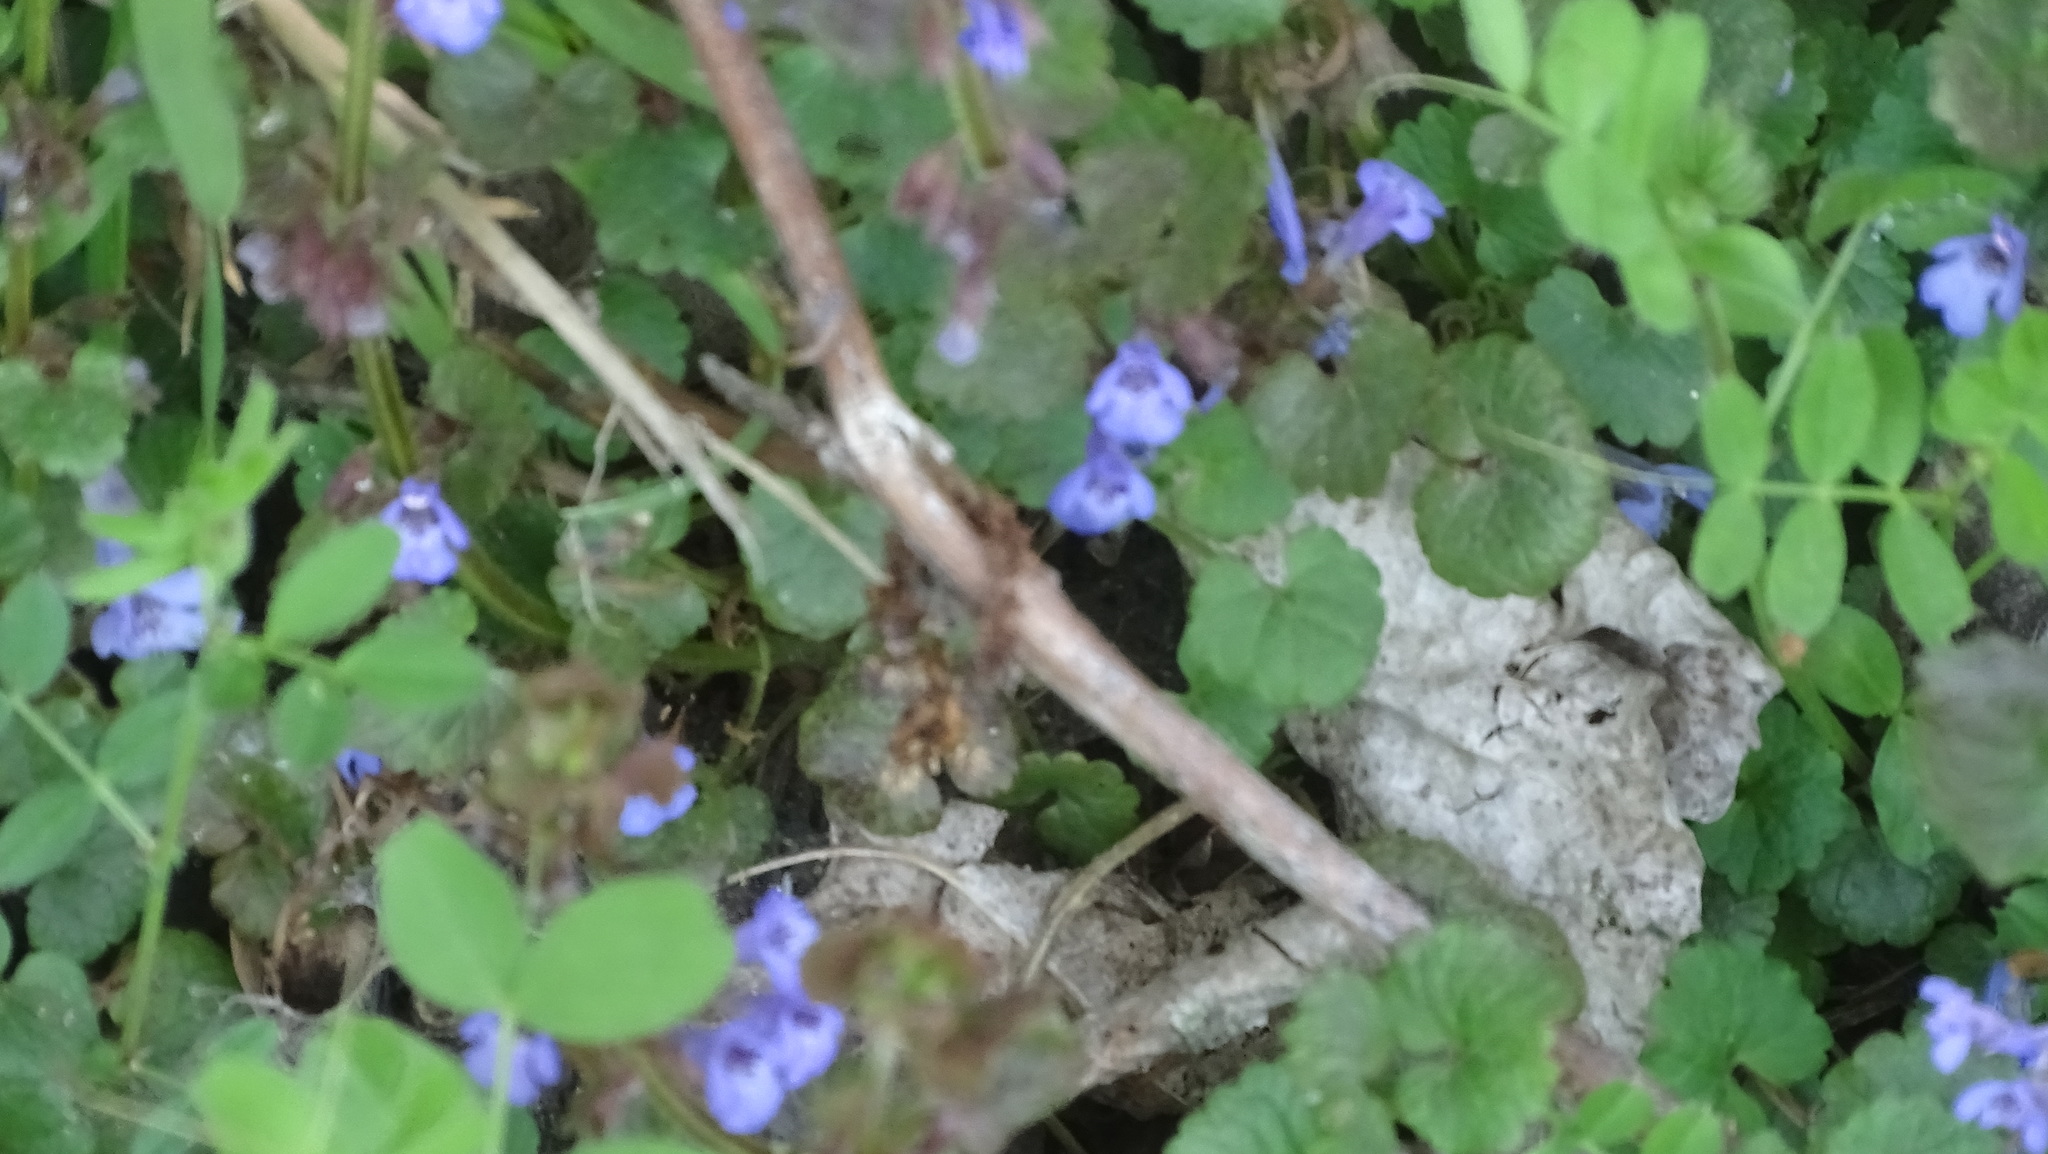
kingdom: Plantae
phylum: Tracheophyta
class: Magnoliopsida
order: Lamiales
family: Lamiaceae
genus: Glechoma
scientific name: Glechoma hederacea
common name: Ground ivy
